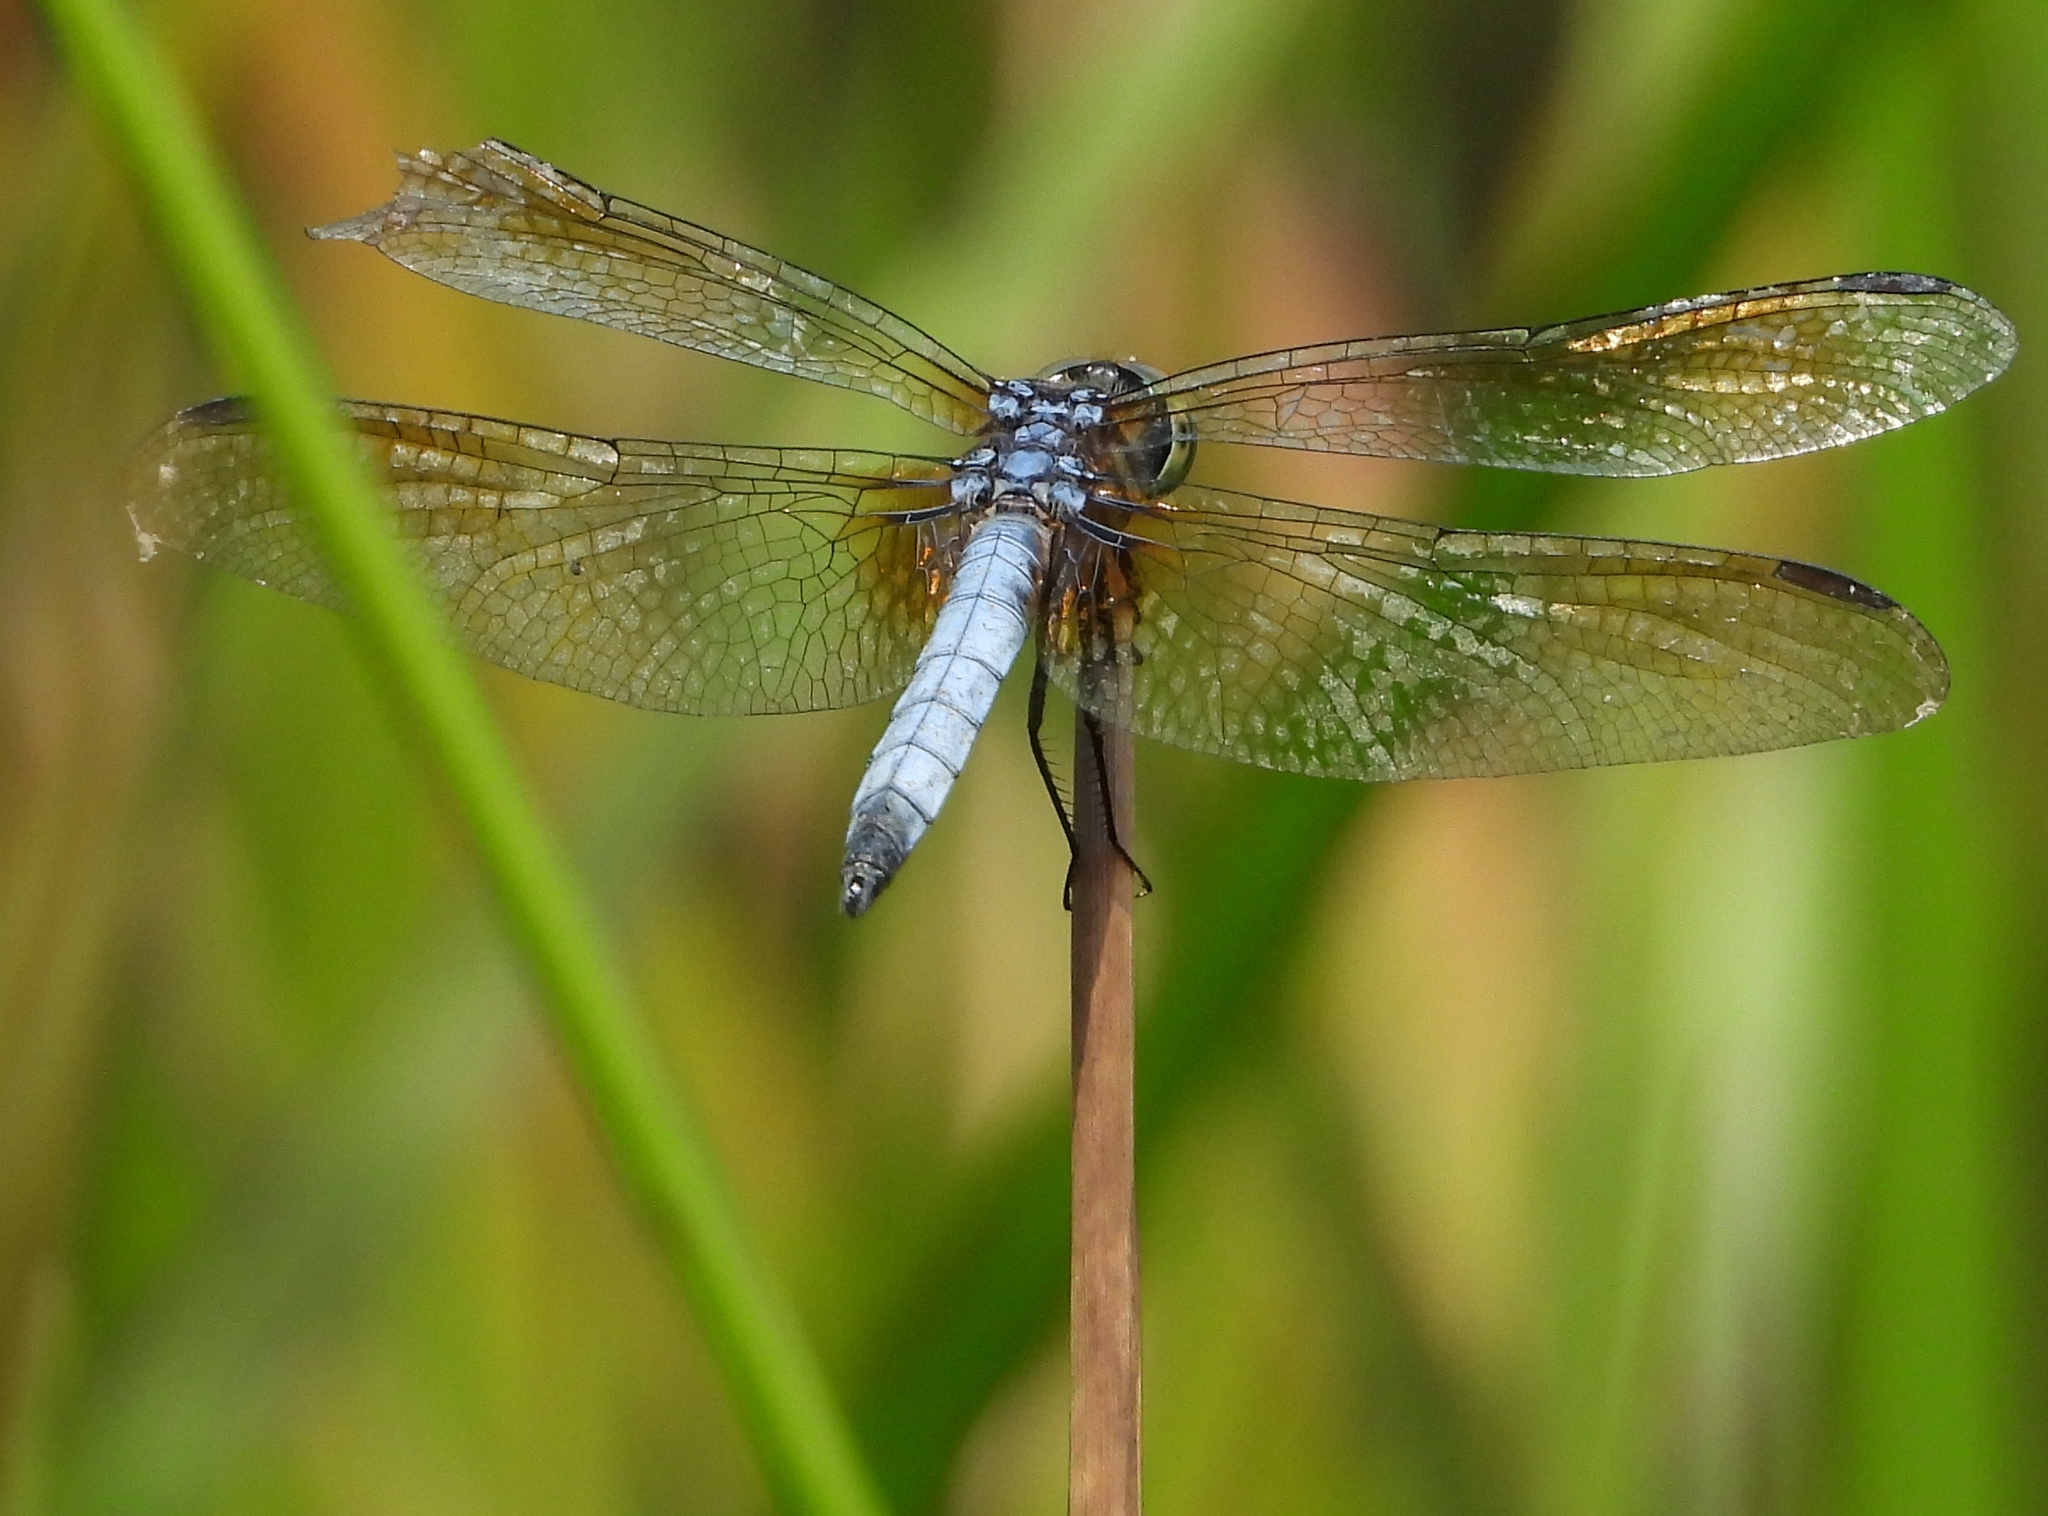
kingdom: Animalia
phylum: Arthropoda
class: Insecta
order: Odonata
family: Libellulidae
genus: Pachydiplax
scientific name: Pachydiplax longipennis
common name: Blue dasher
